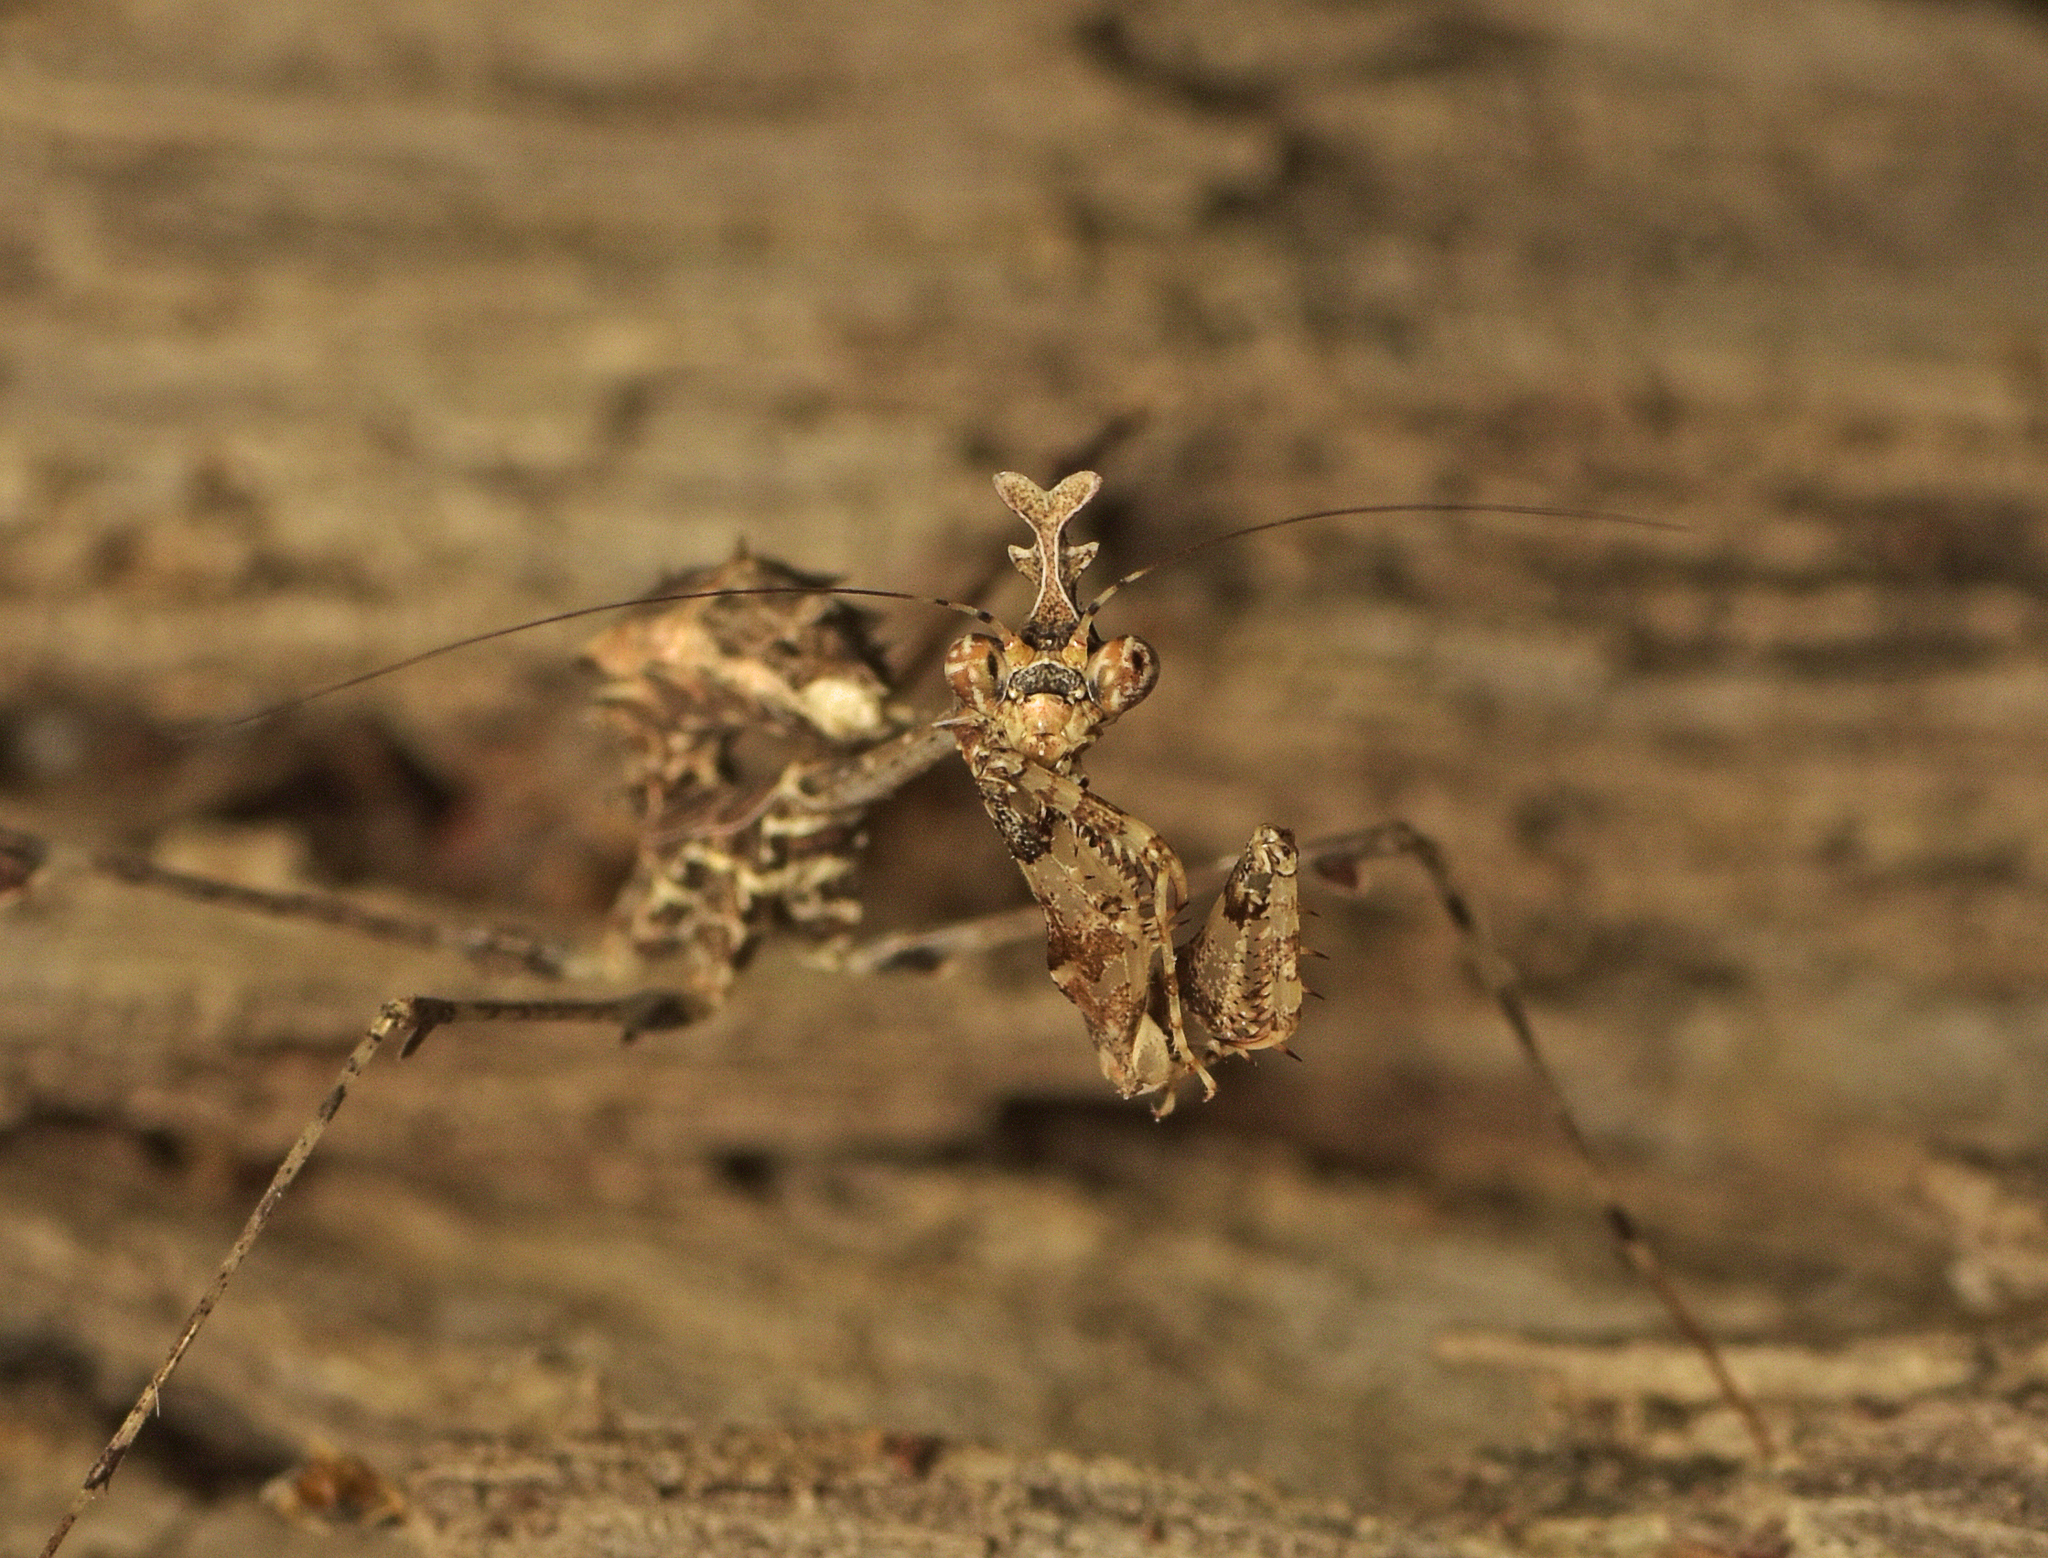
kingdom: Animalia
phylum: Arthropoda
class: Insecta
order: Mantodea
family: Hymenopodidae
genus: Sibylla
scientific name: Sibylla pretiosa
